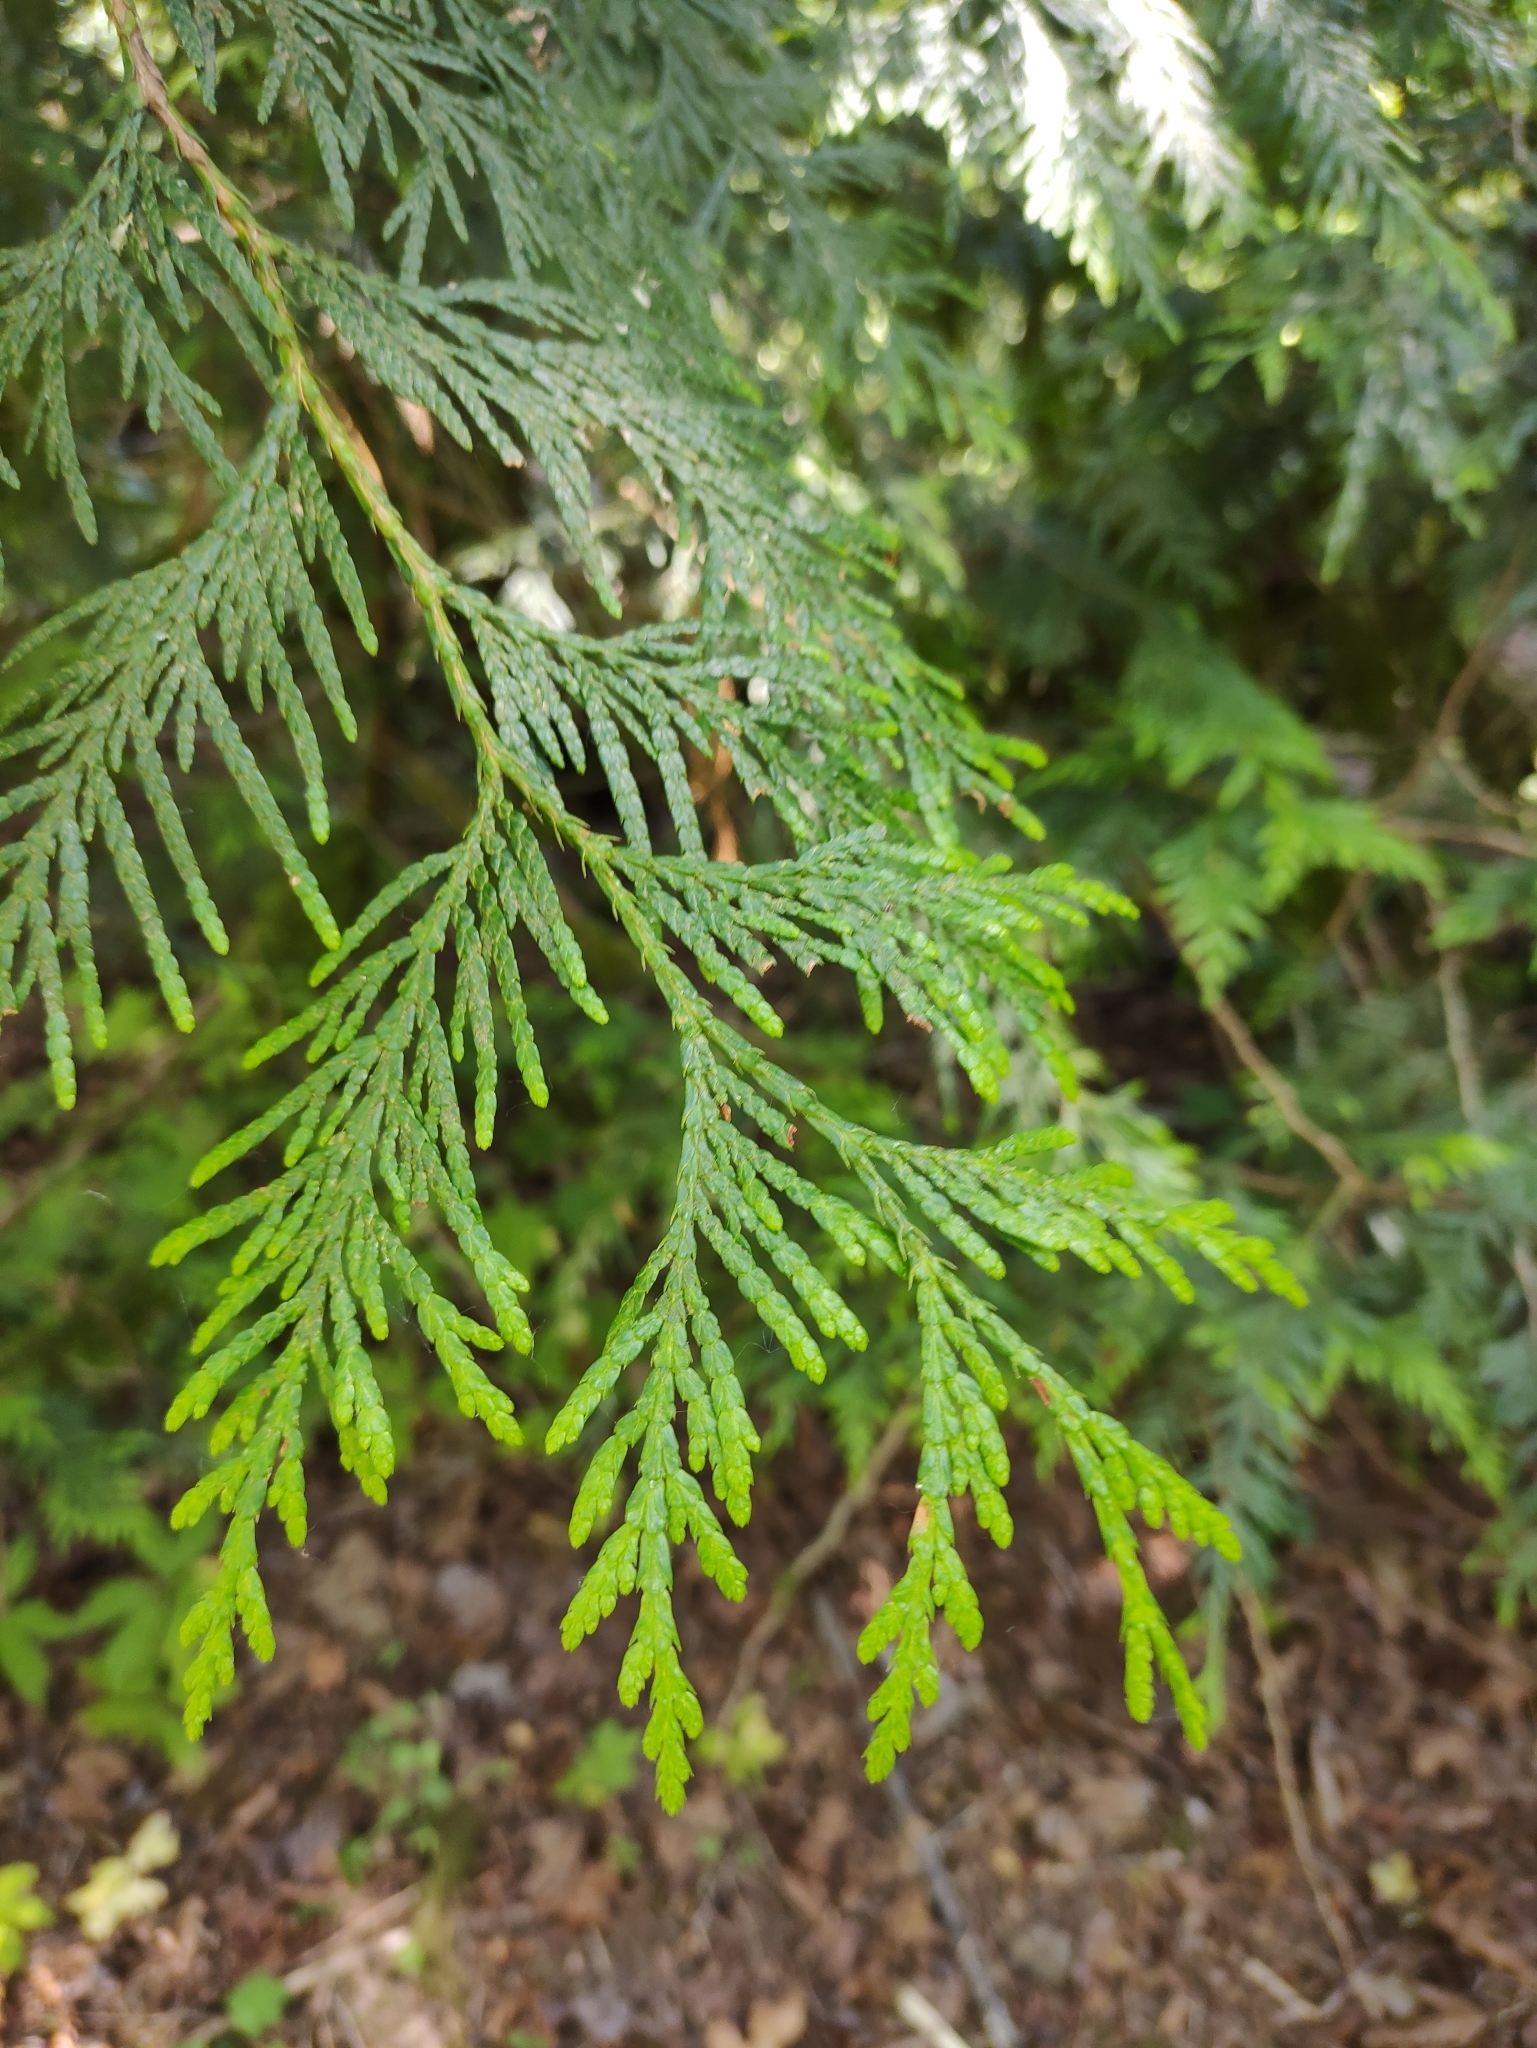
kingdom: Plantae
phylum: Tracheophyta
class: Pinopsida
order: Pinales
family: Cupressaceae
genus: Thuja
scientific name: Thuja plicata
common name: Western red-cedar
